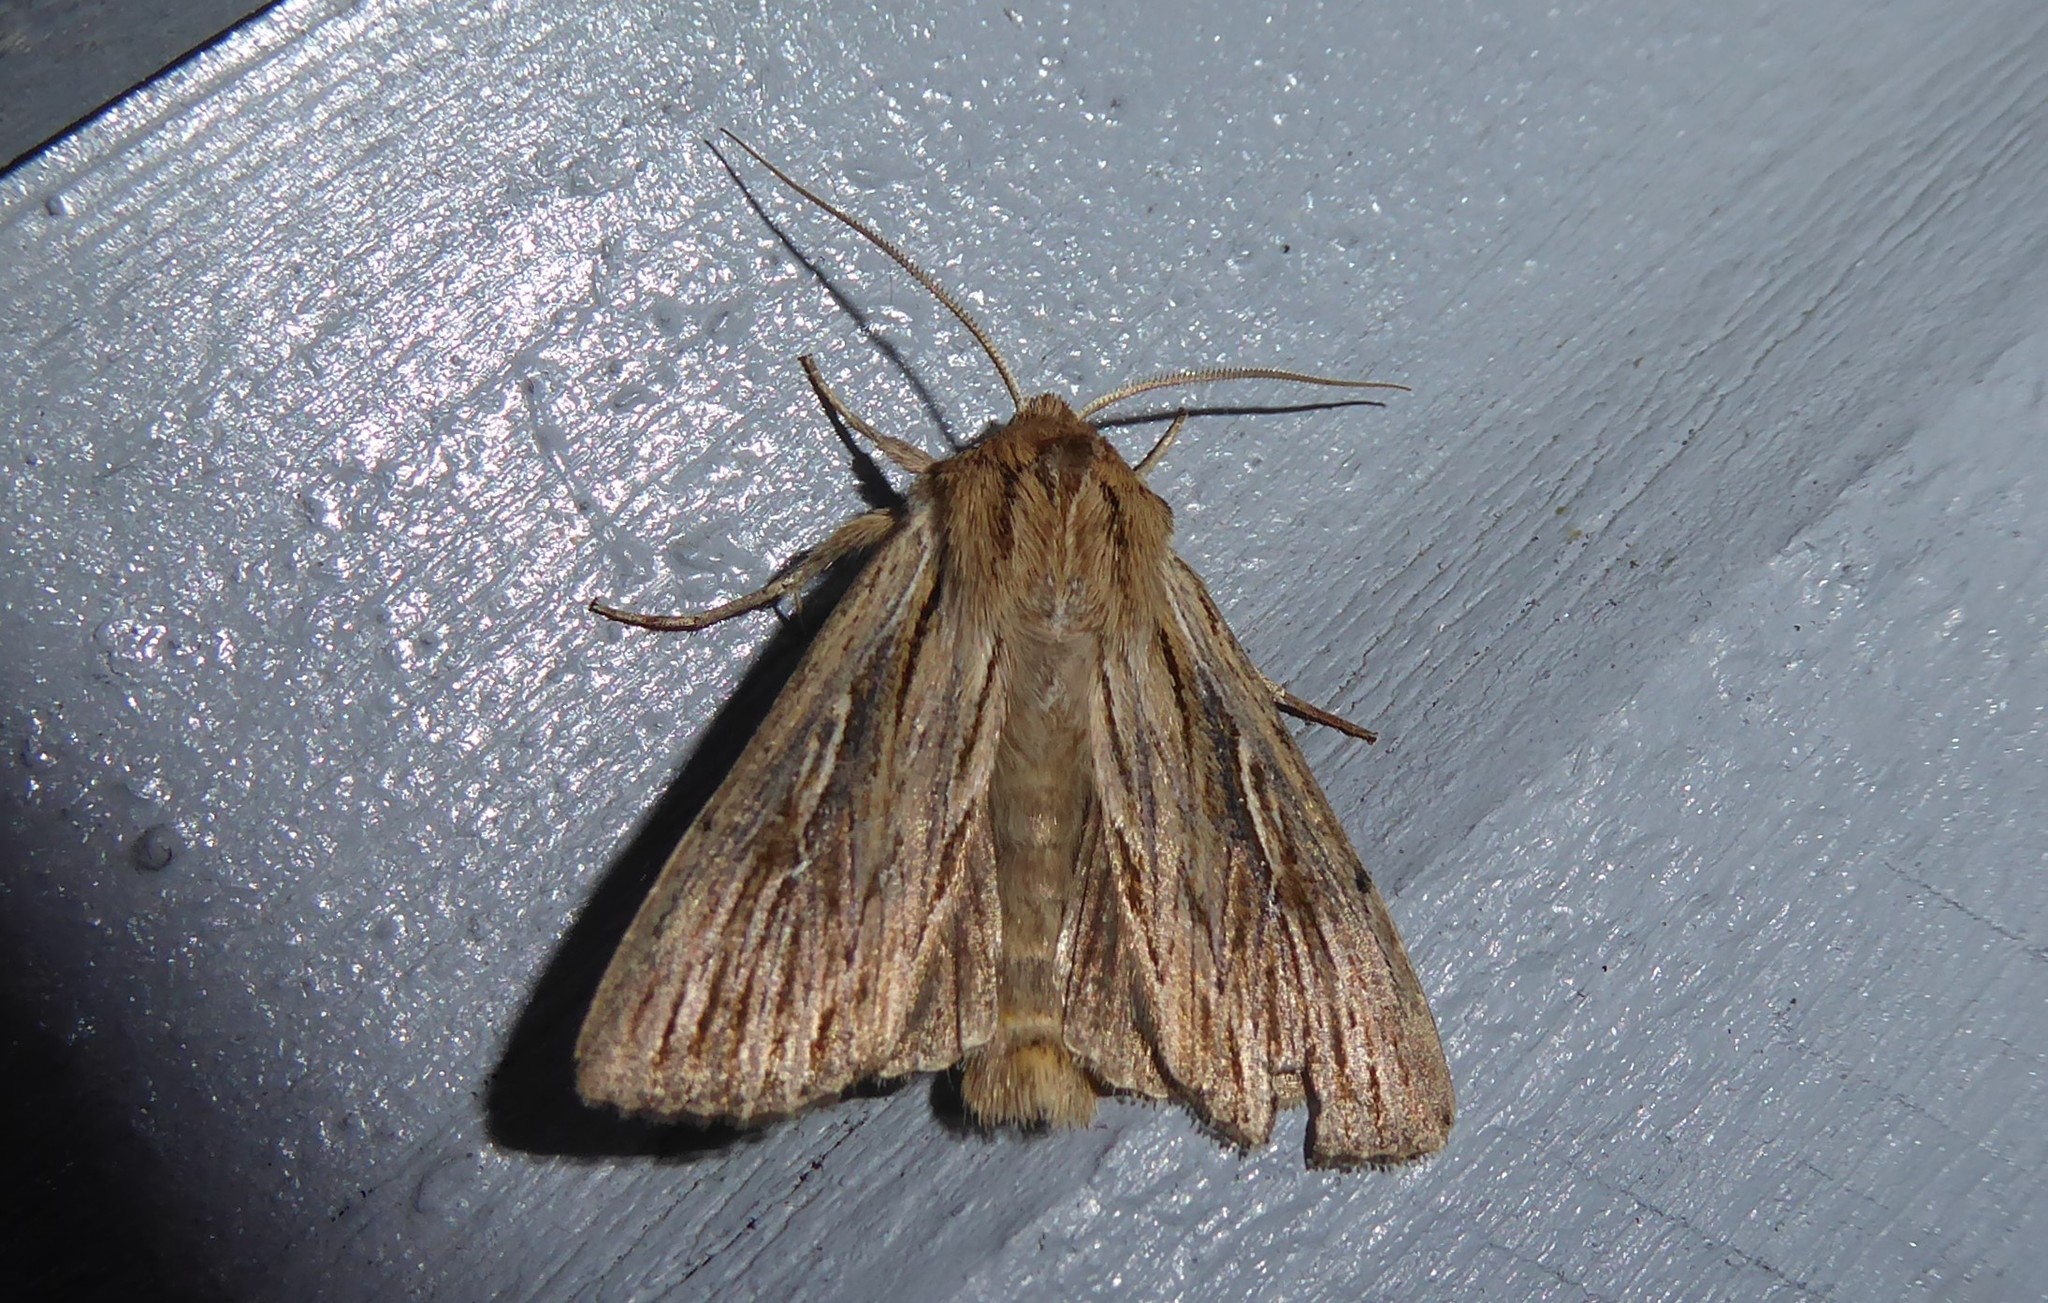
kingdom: Animalia
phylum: Arthropoda
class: Insecta
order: Lepidoptera
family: Noctuidae
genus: Persectania
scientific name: Persectania aversa
